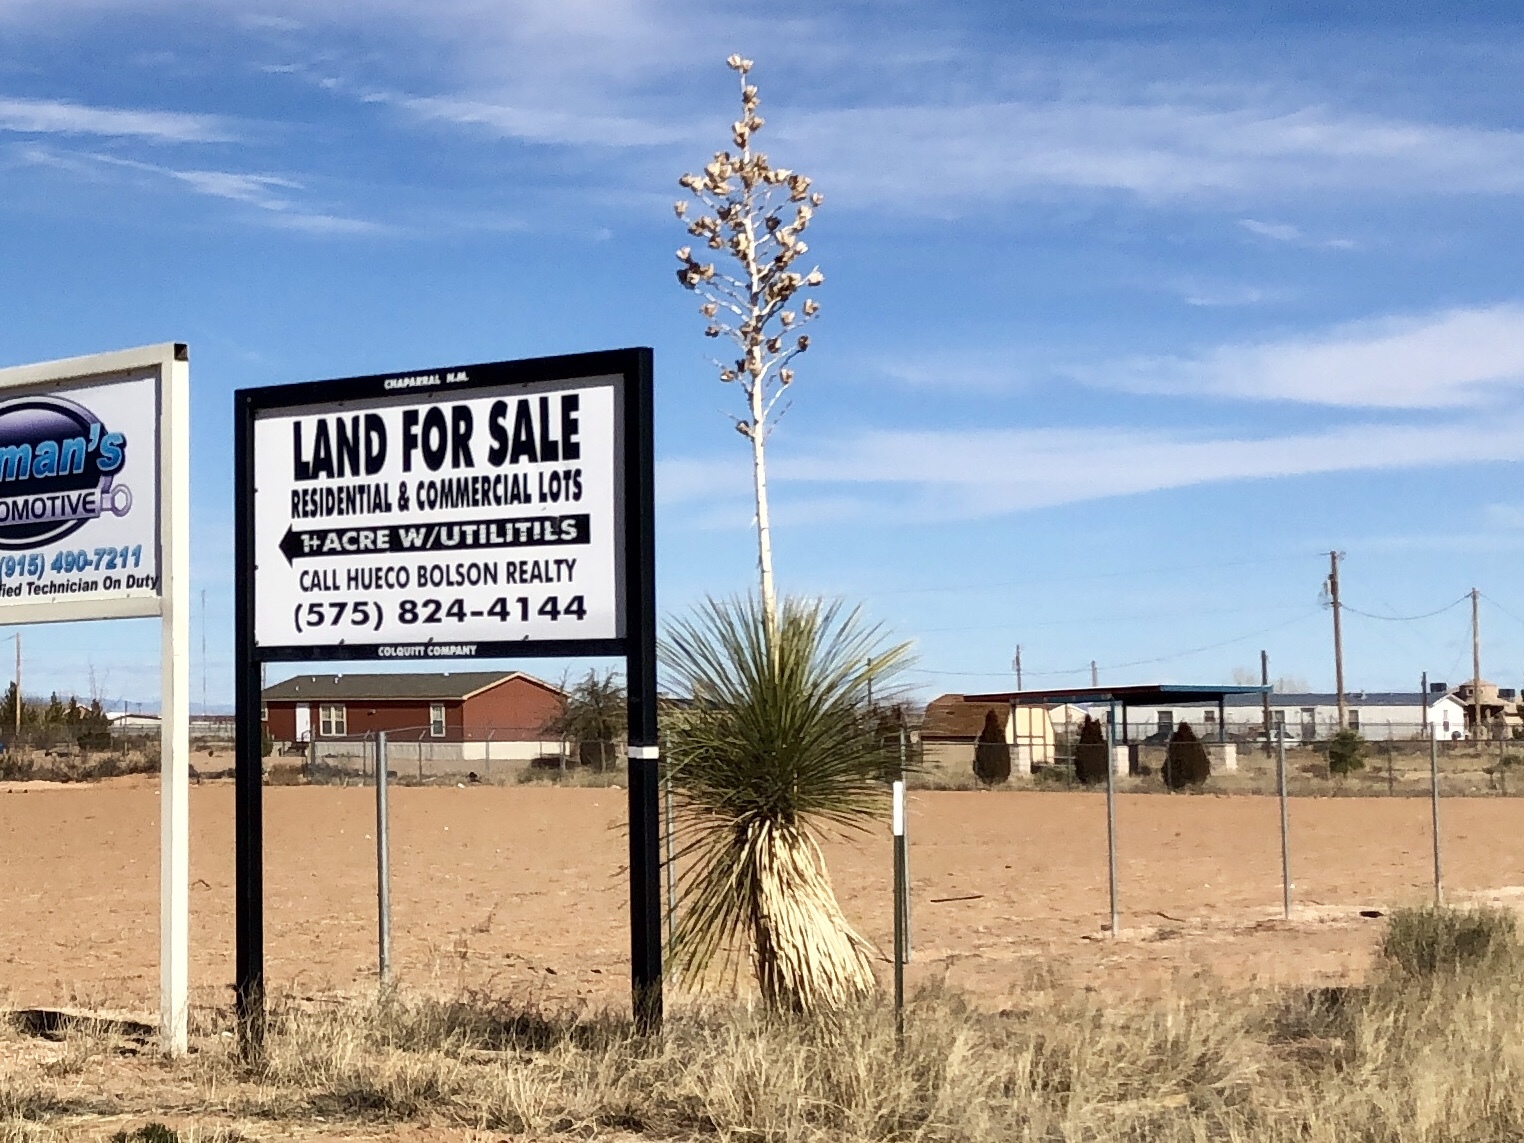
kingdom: Plantae
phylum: Tracheophyta
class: Liliopsida
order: Asparagales
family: Asparagaceae
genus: Yucca
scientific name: Yucca elata
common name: Palmella
